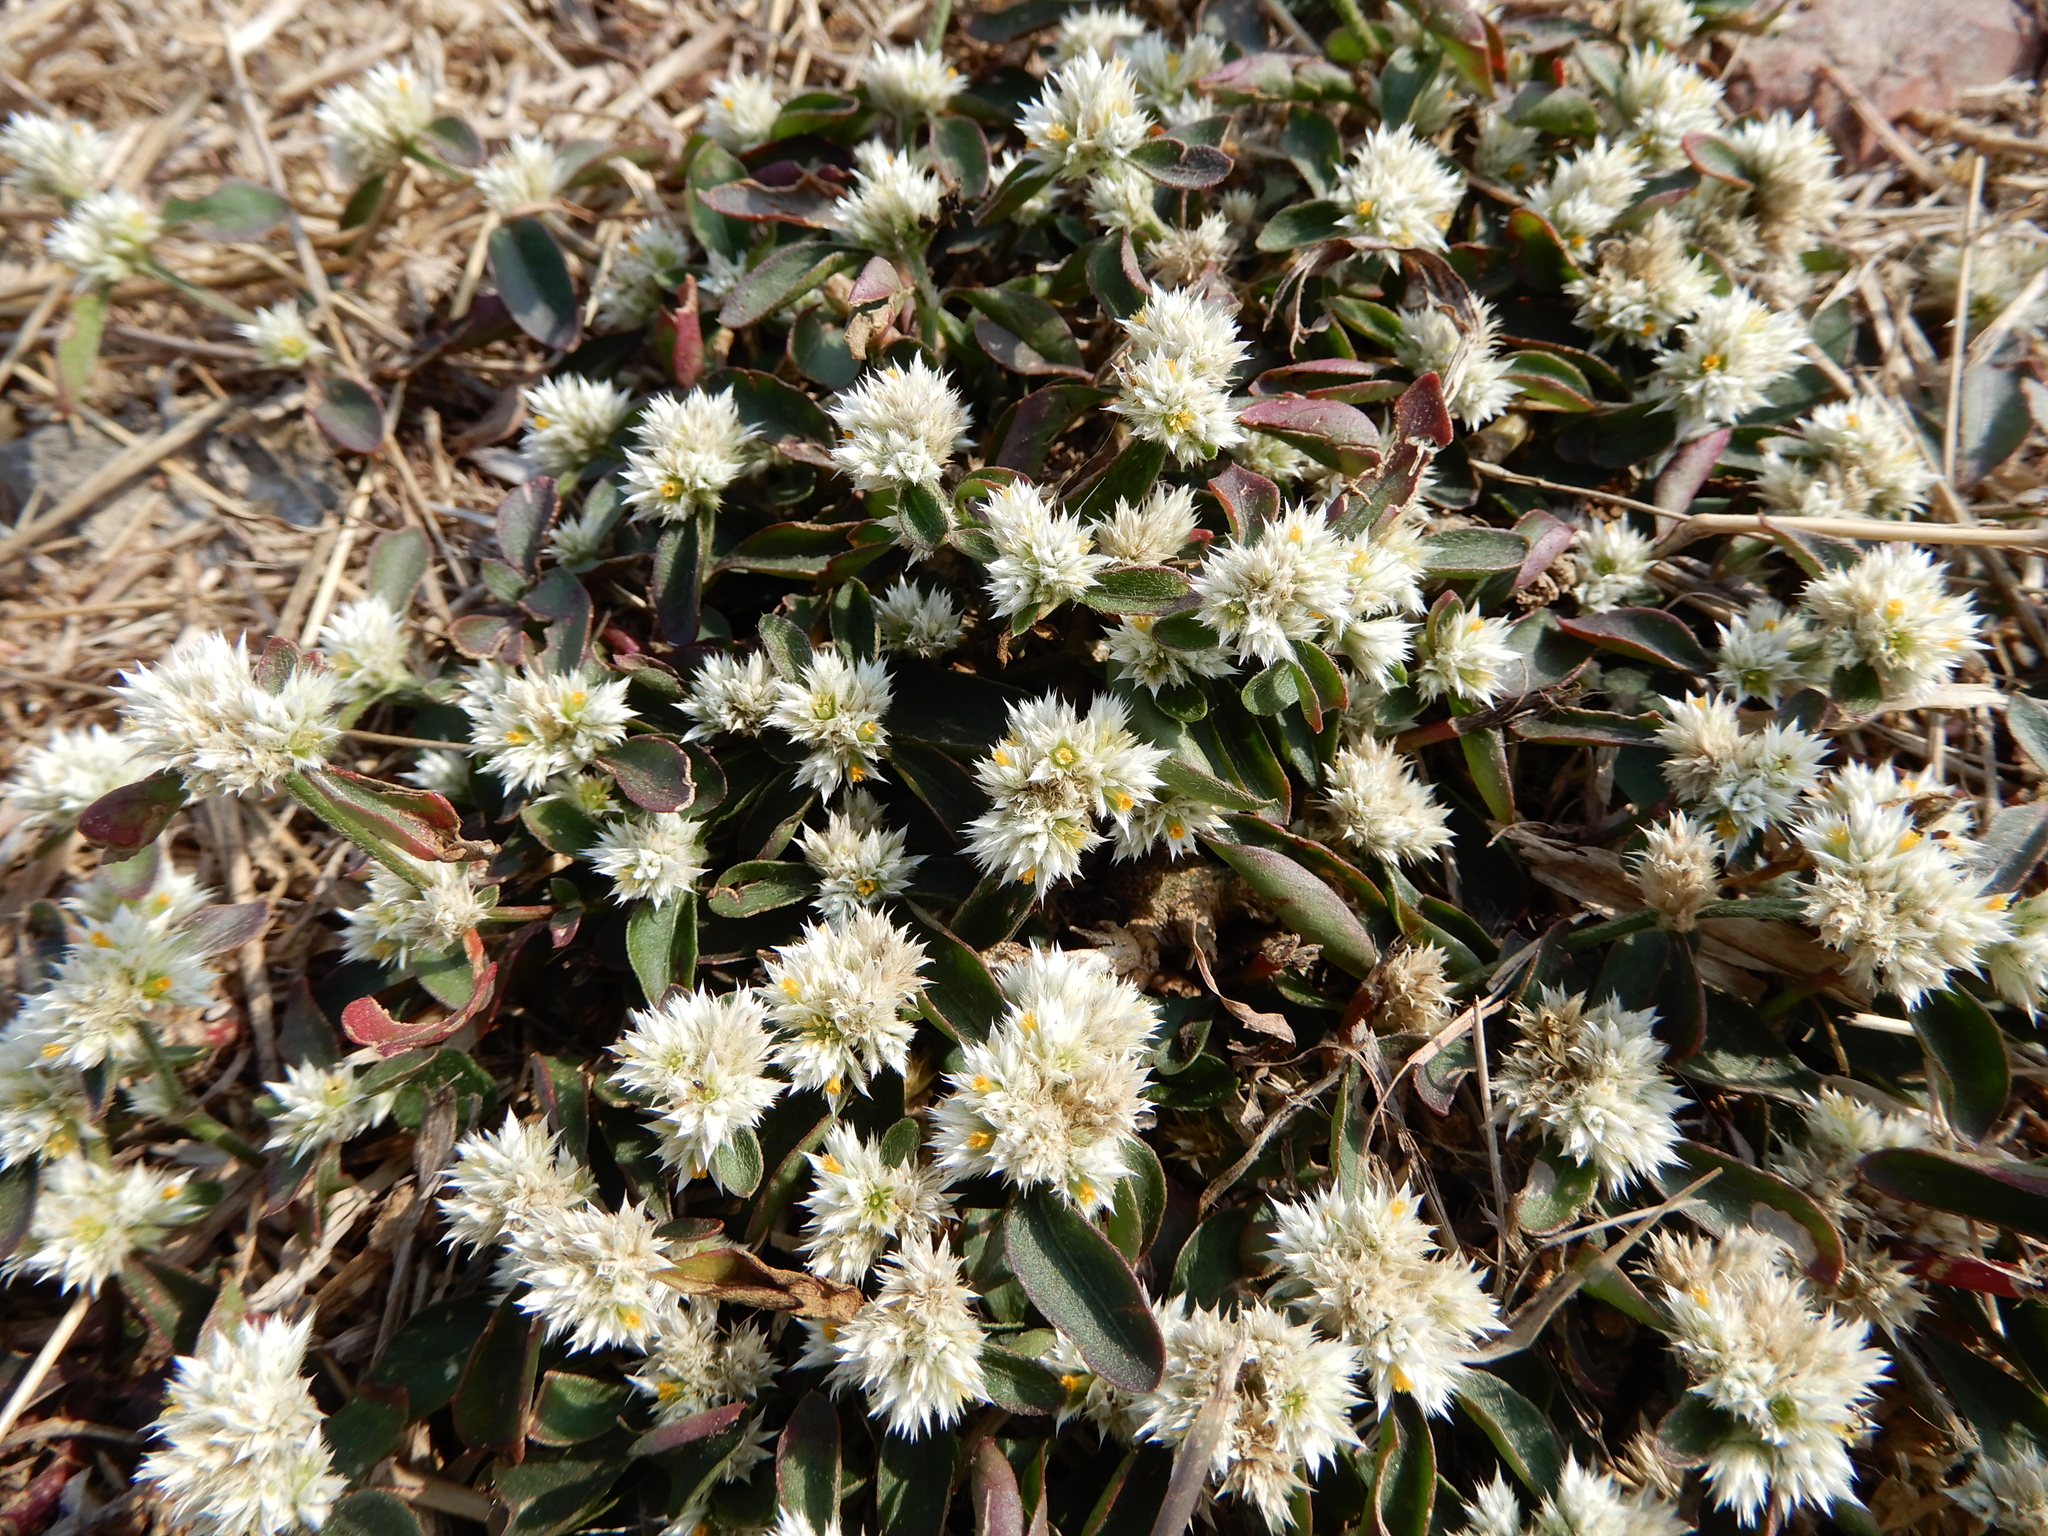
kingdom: Plantae
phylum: Tracheophyta
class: Magnoliopsida
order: Caryophyllales
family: Amaranthaceae
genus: Alternanthera
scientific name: Alternanthera ficoidea
